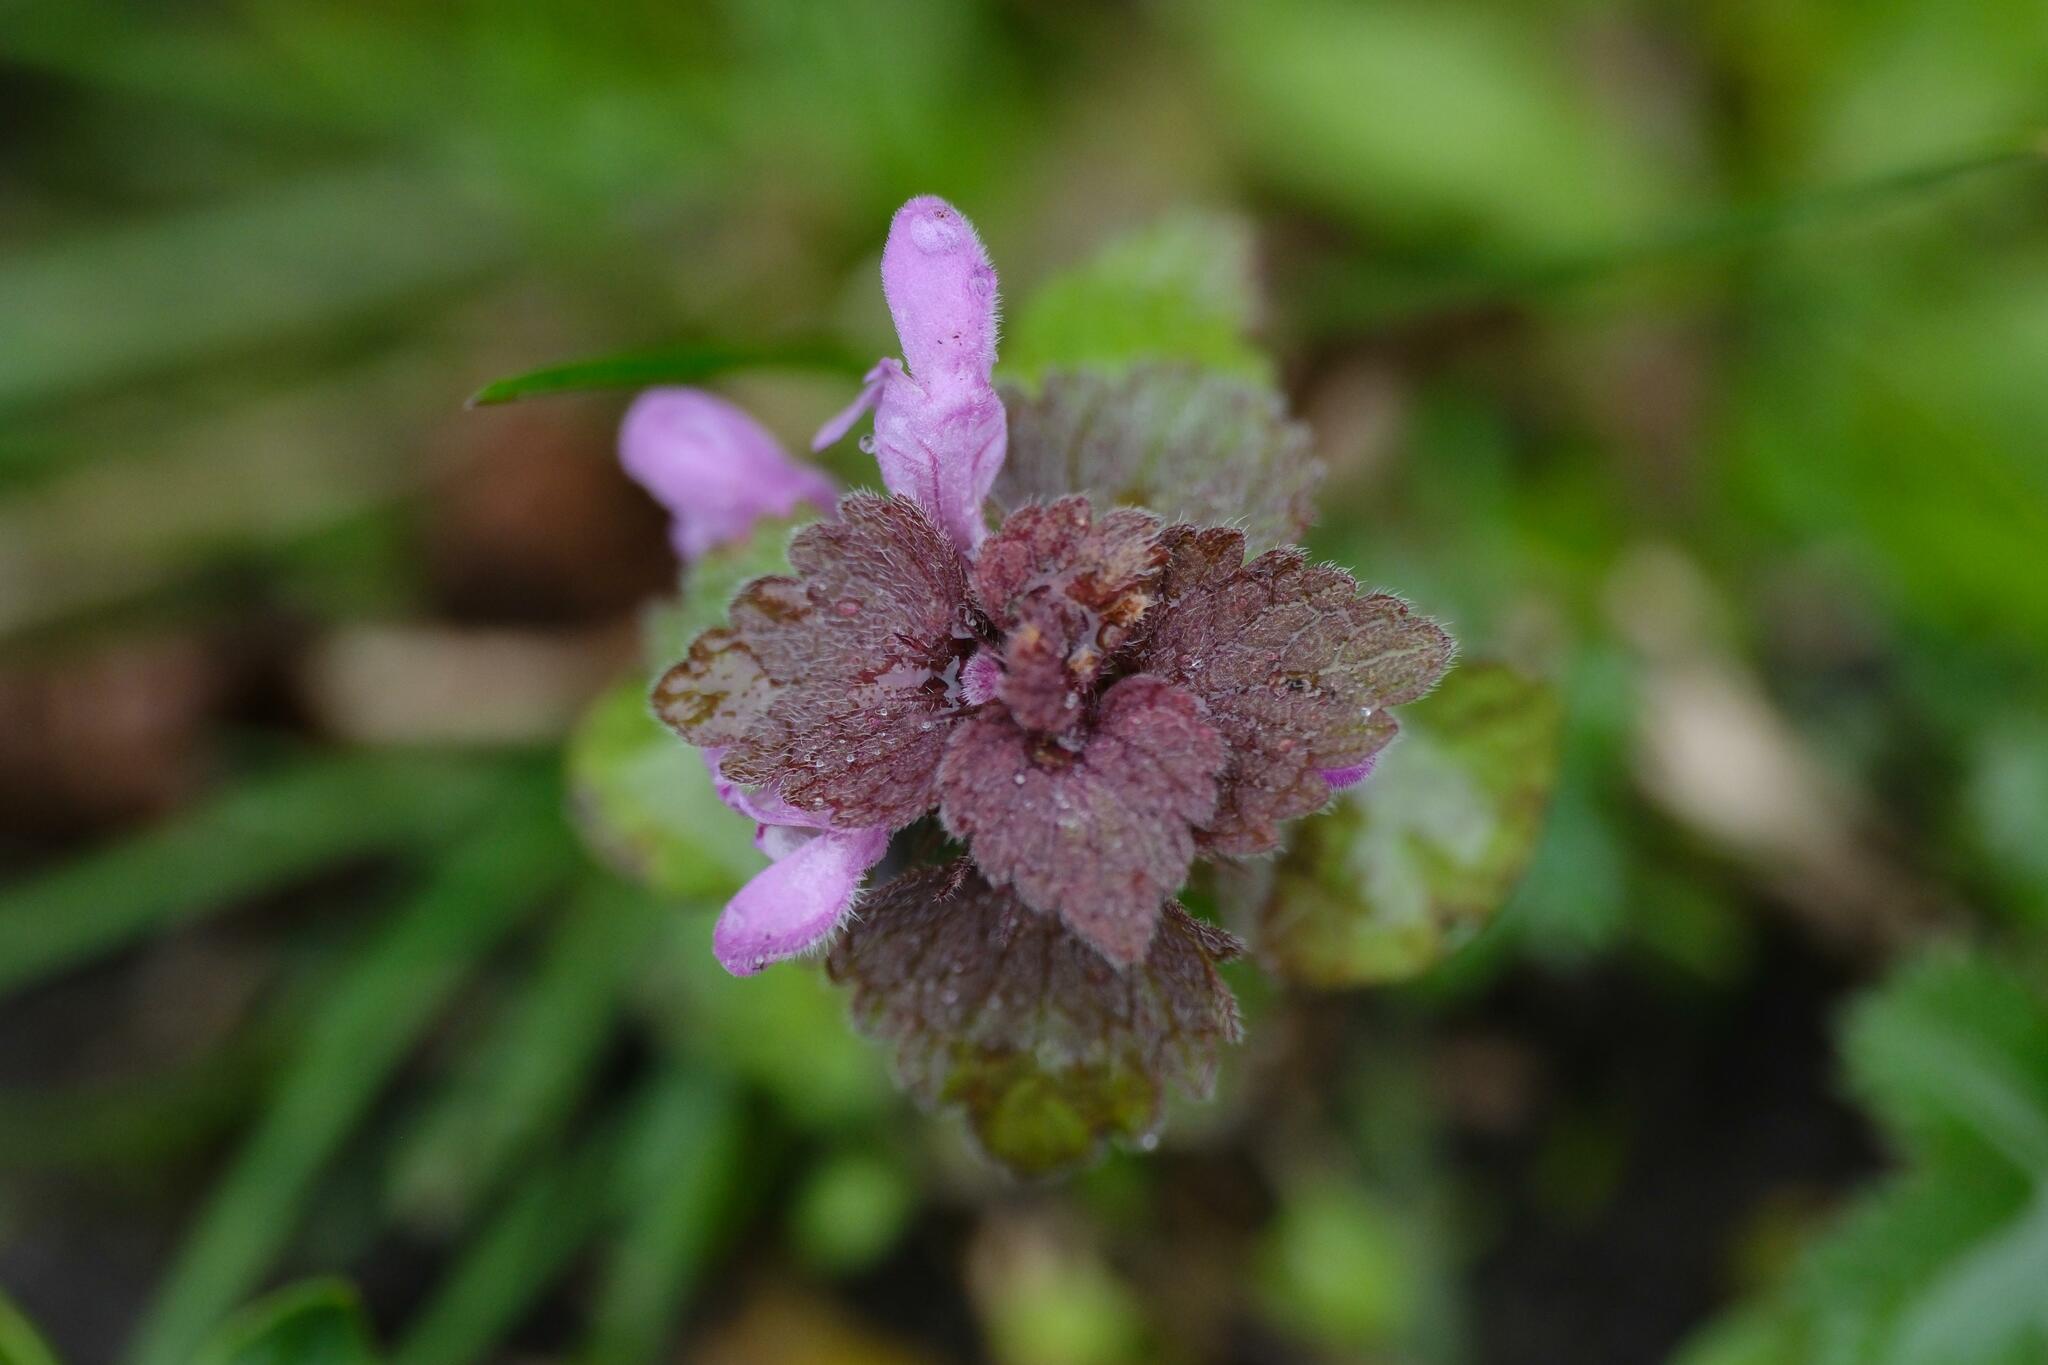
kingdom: Plantae
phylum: Tracheophyta
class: Magnoliopsida
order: Lamiales
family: Lamiaceae
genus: Lamium
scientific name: Lamium purpureum
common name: Red dead-nettle
